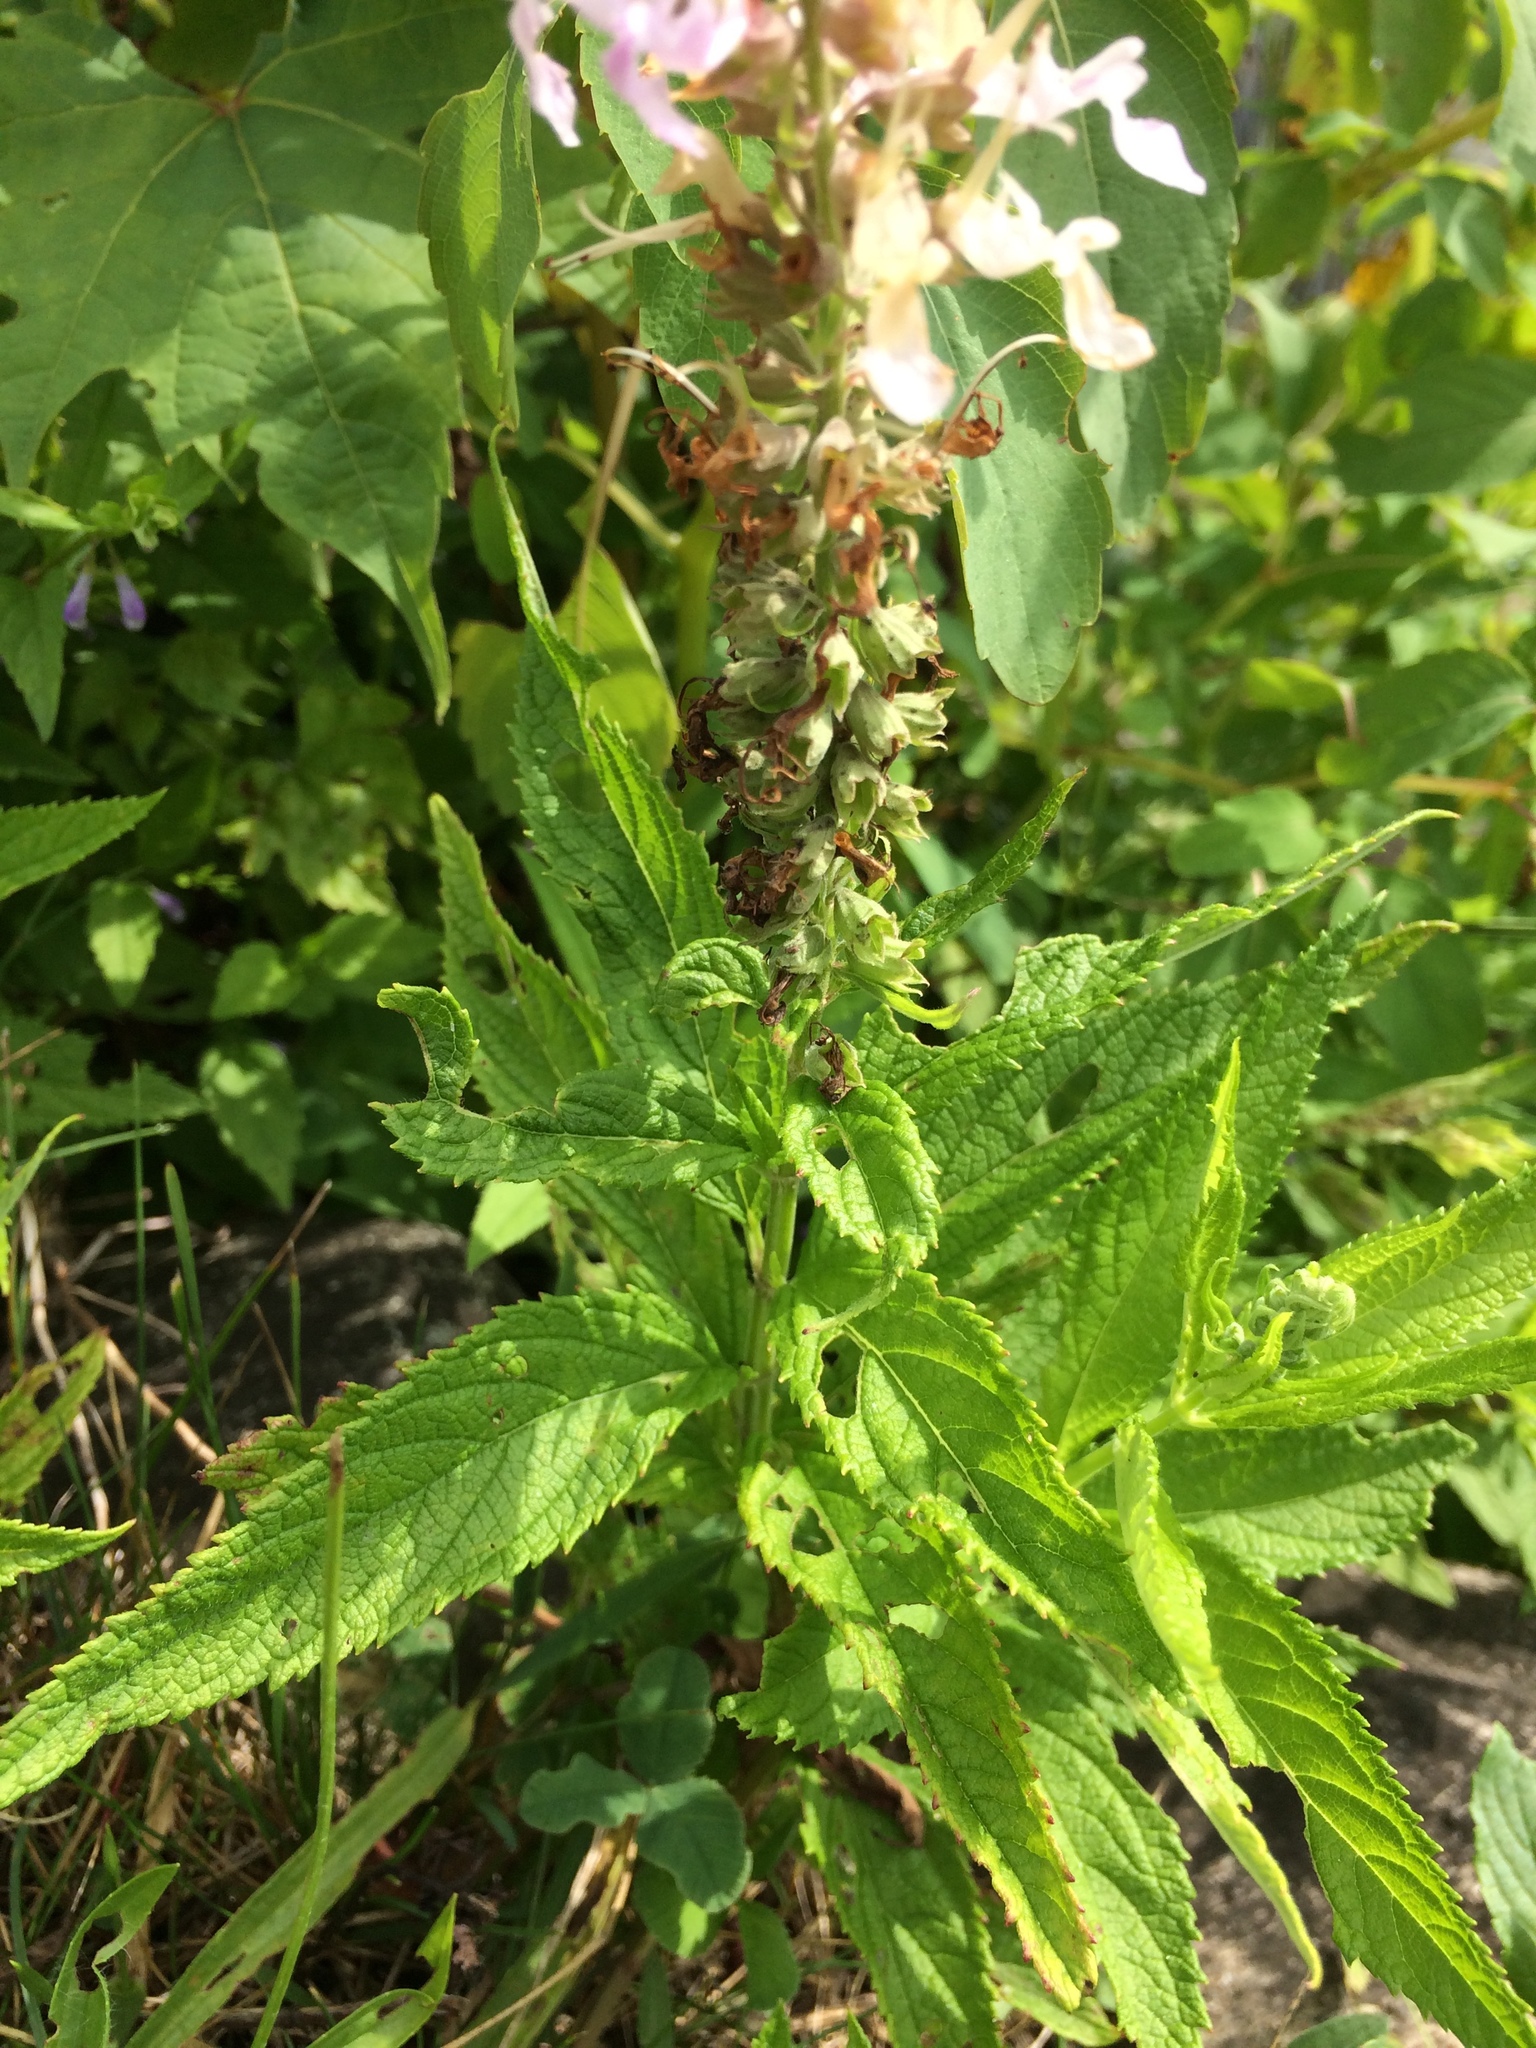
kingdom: Plantae
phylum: Tracheophyta
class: Magnoliopsida
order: Lamiales
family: Lamiaceae
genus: Teucrium
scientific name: Teucrium canadense
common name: American germander
